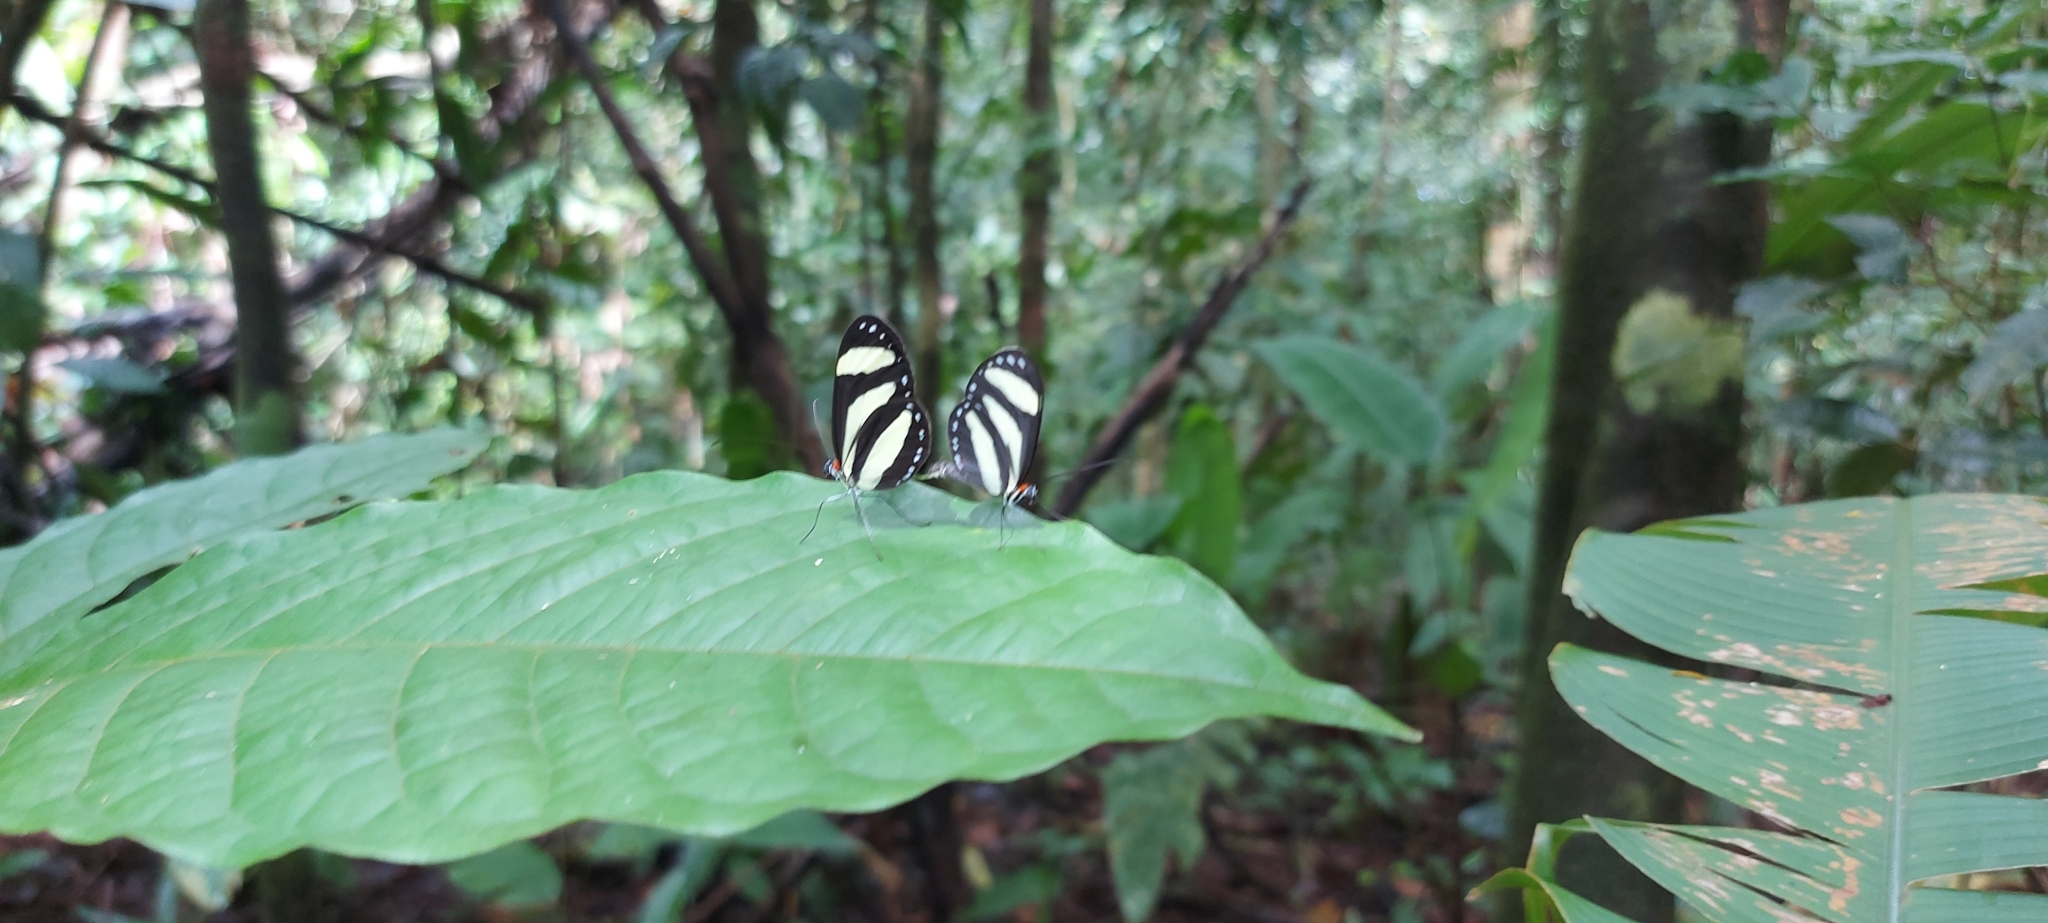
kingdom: Animalia
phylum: Arthropoda
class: Insecta
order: Lepidoptera
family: Nymphalidae
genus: Aeria
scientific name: Aeria eurimedia
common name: Banded tigerwing
